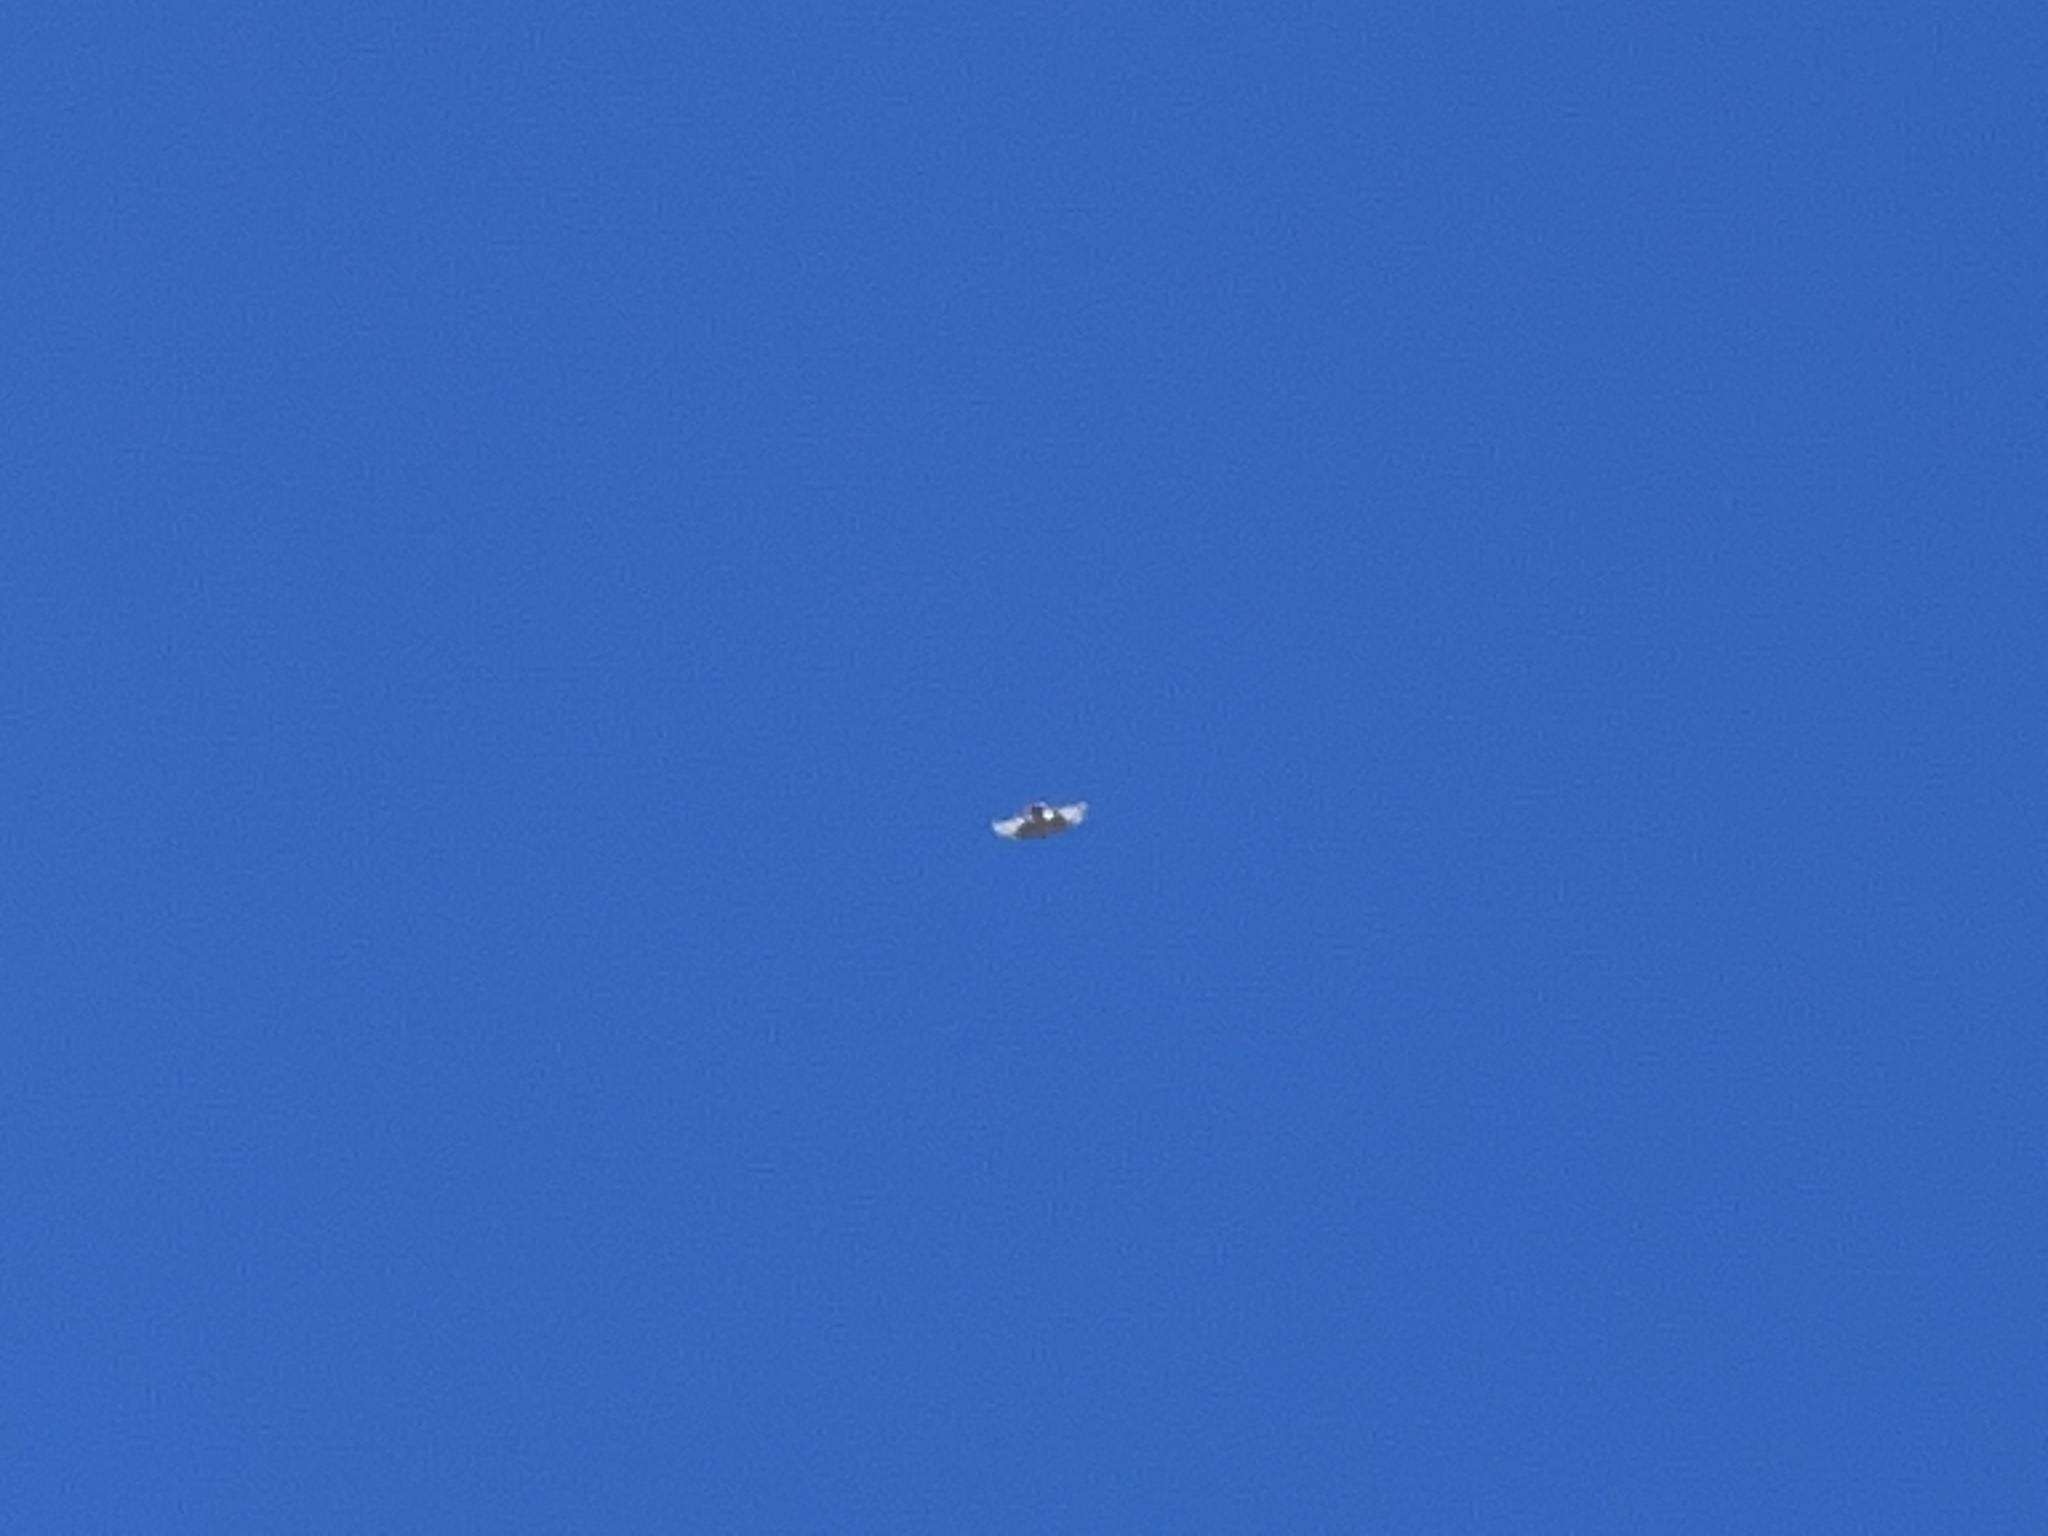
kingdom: Animalia
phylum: Chordata
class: Aves
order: Accipitriformes
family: Accipitridae
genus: Buteo
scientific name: Buteo jamaicensis
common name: Red-tailed hawk
